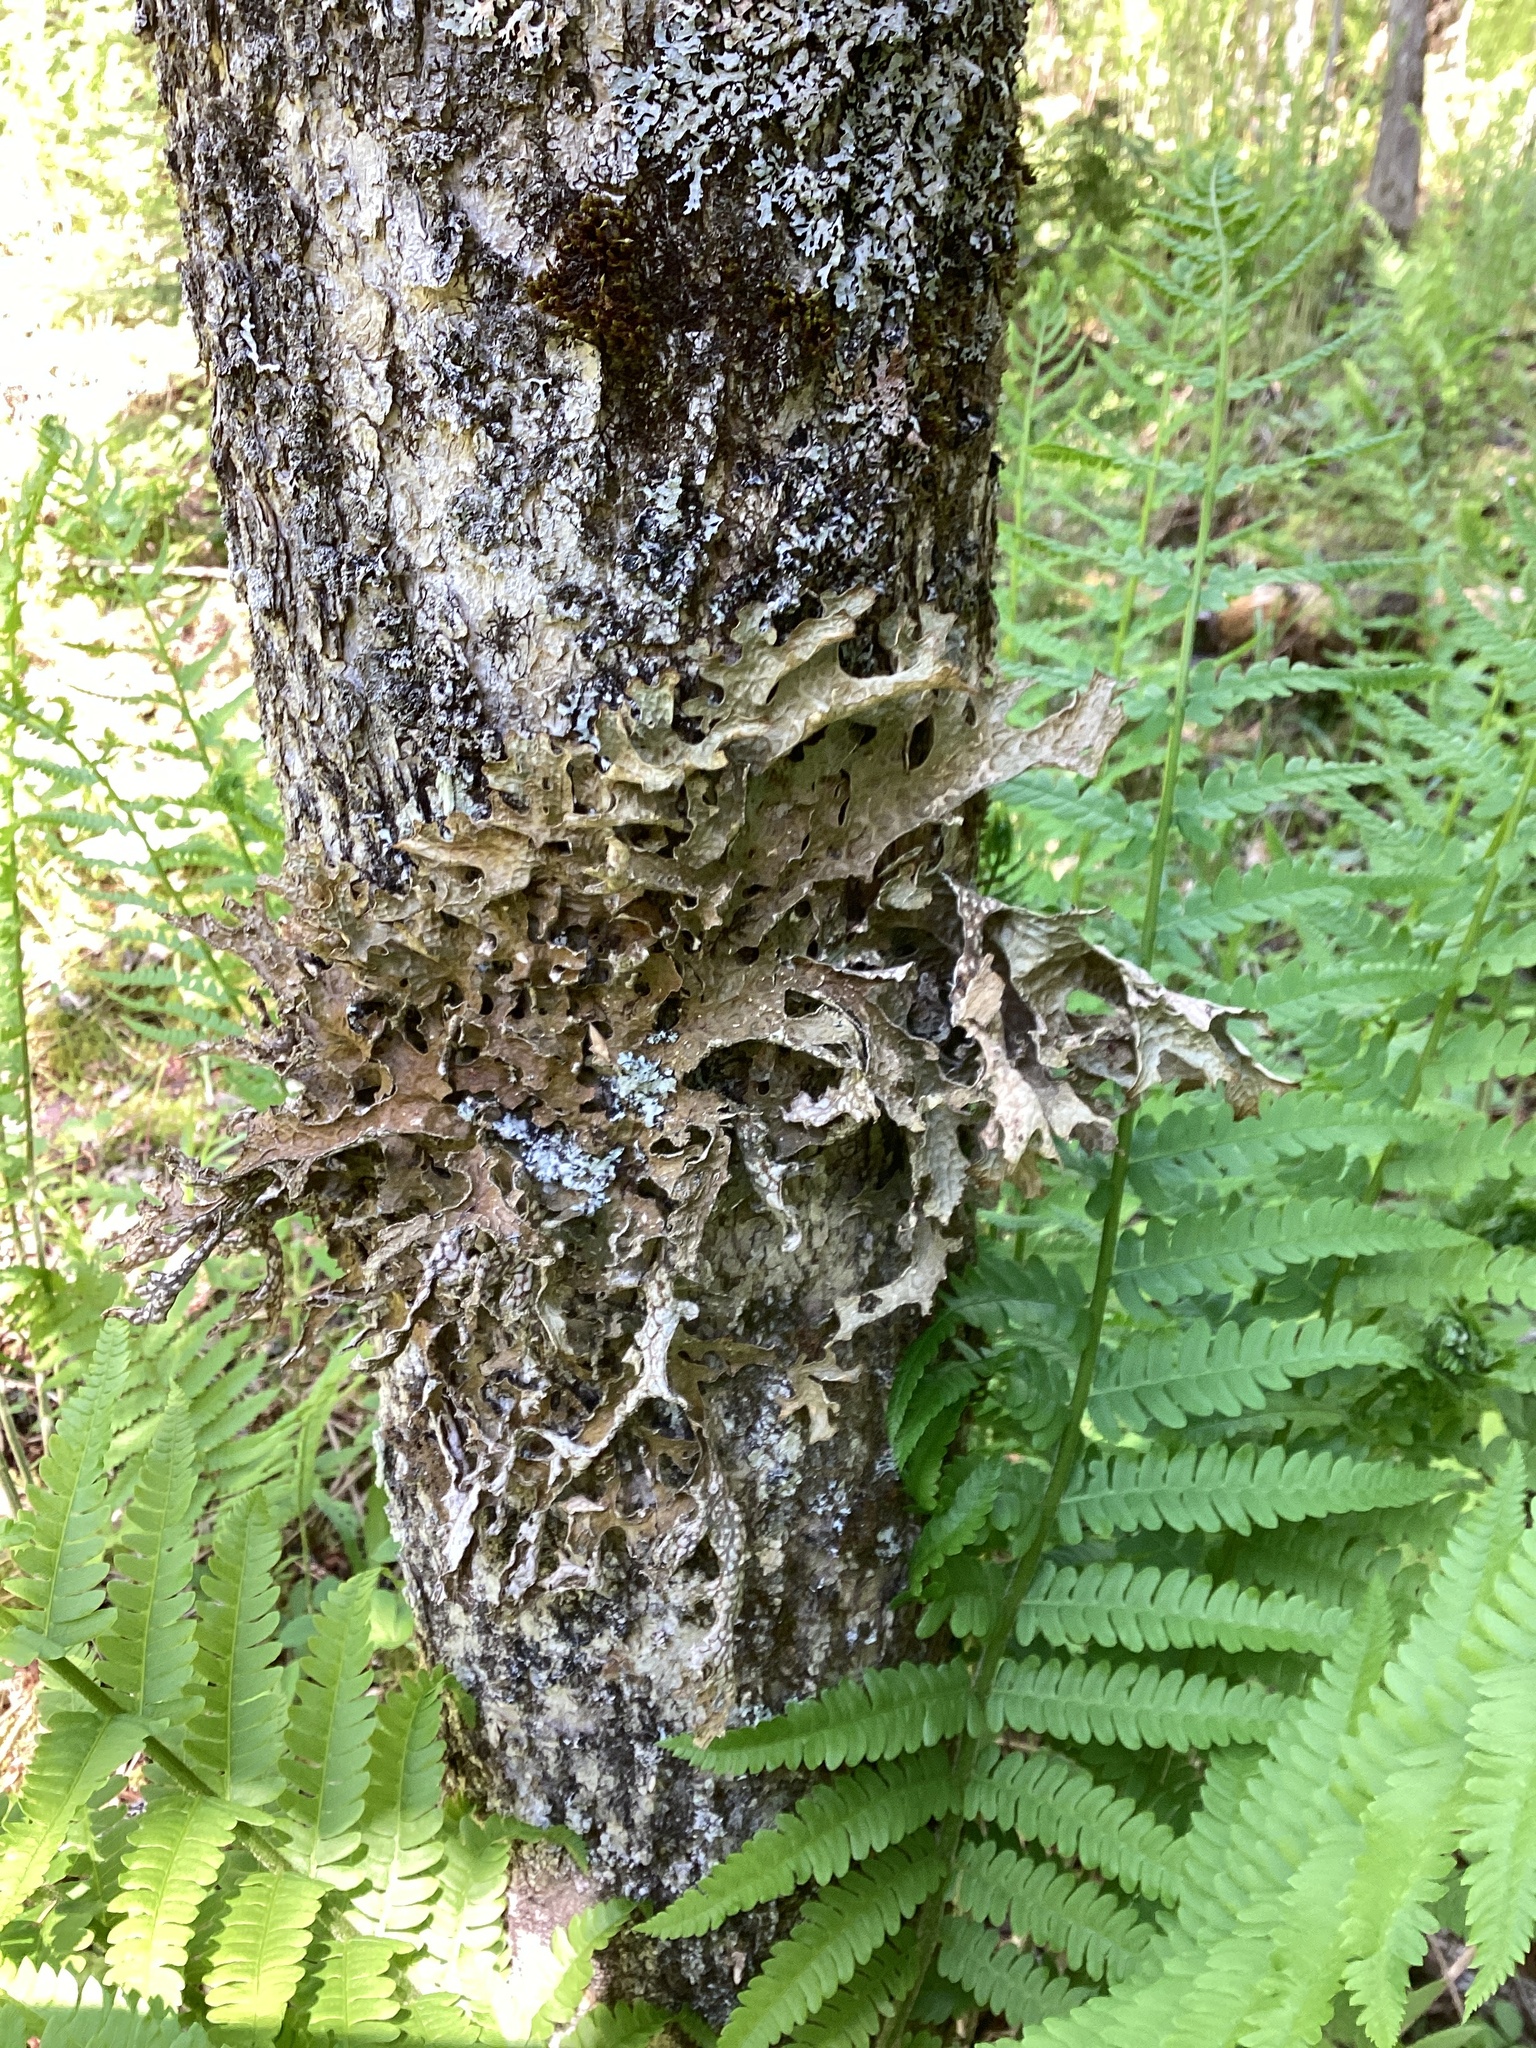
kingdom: Fungi
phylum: Ascomycota
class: Lecanoromycetes
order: Peltigerales
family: Lobariaceae
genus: Lobaria
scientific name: Lobaria pulmonaria
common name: Lungwort
